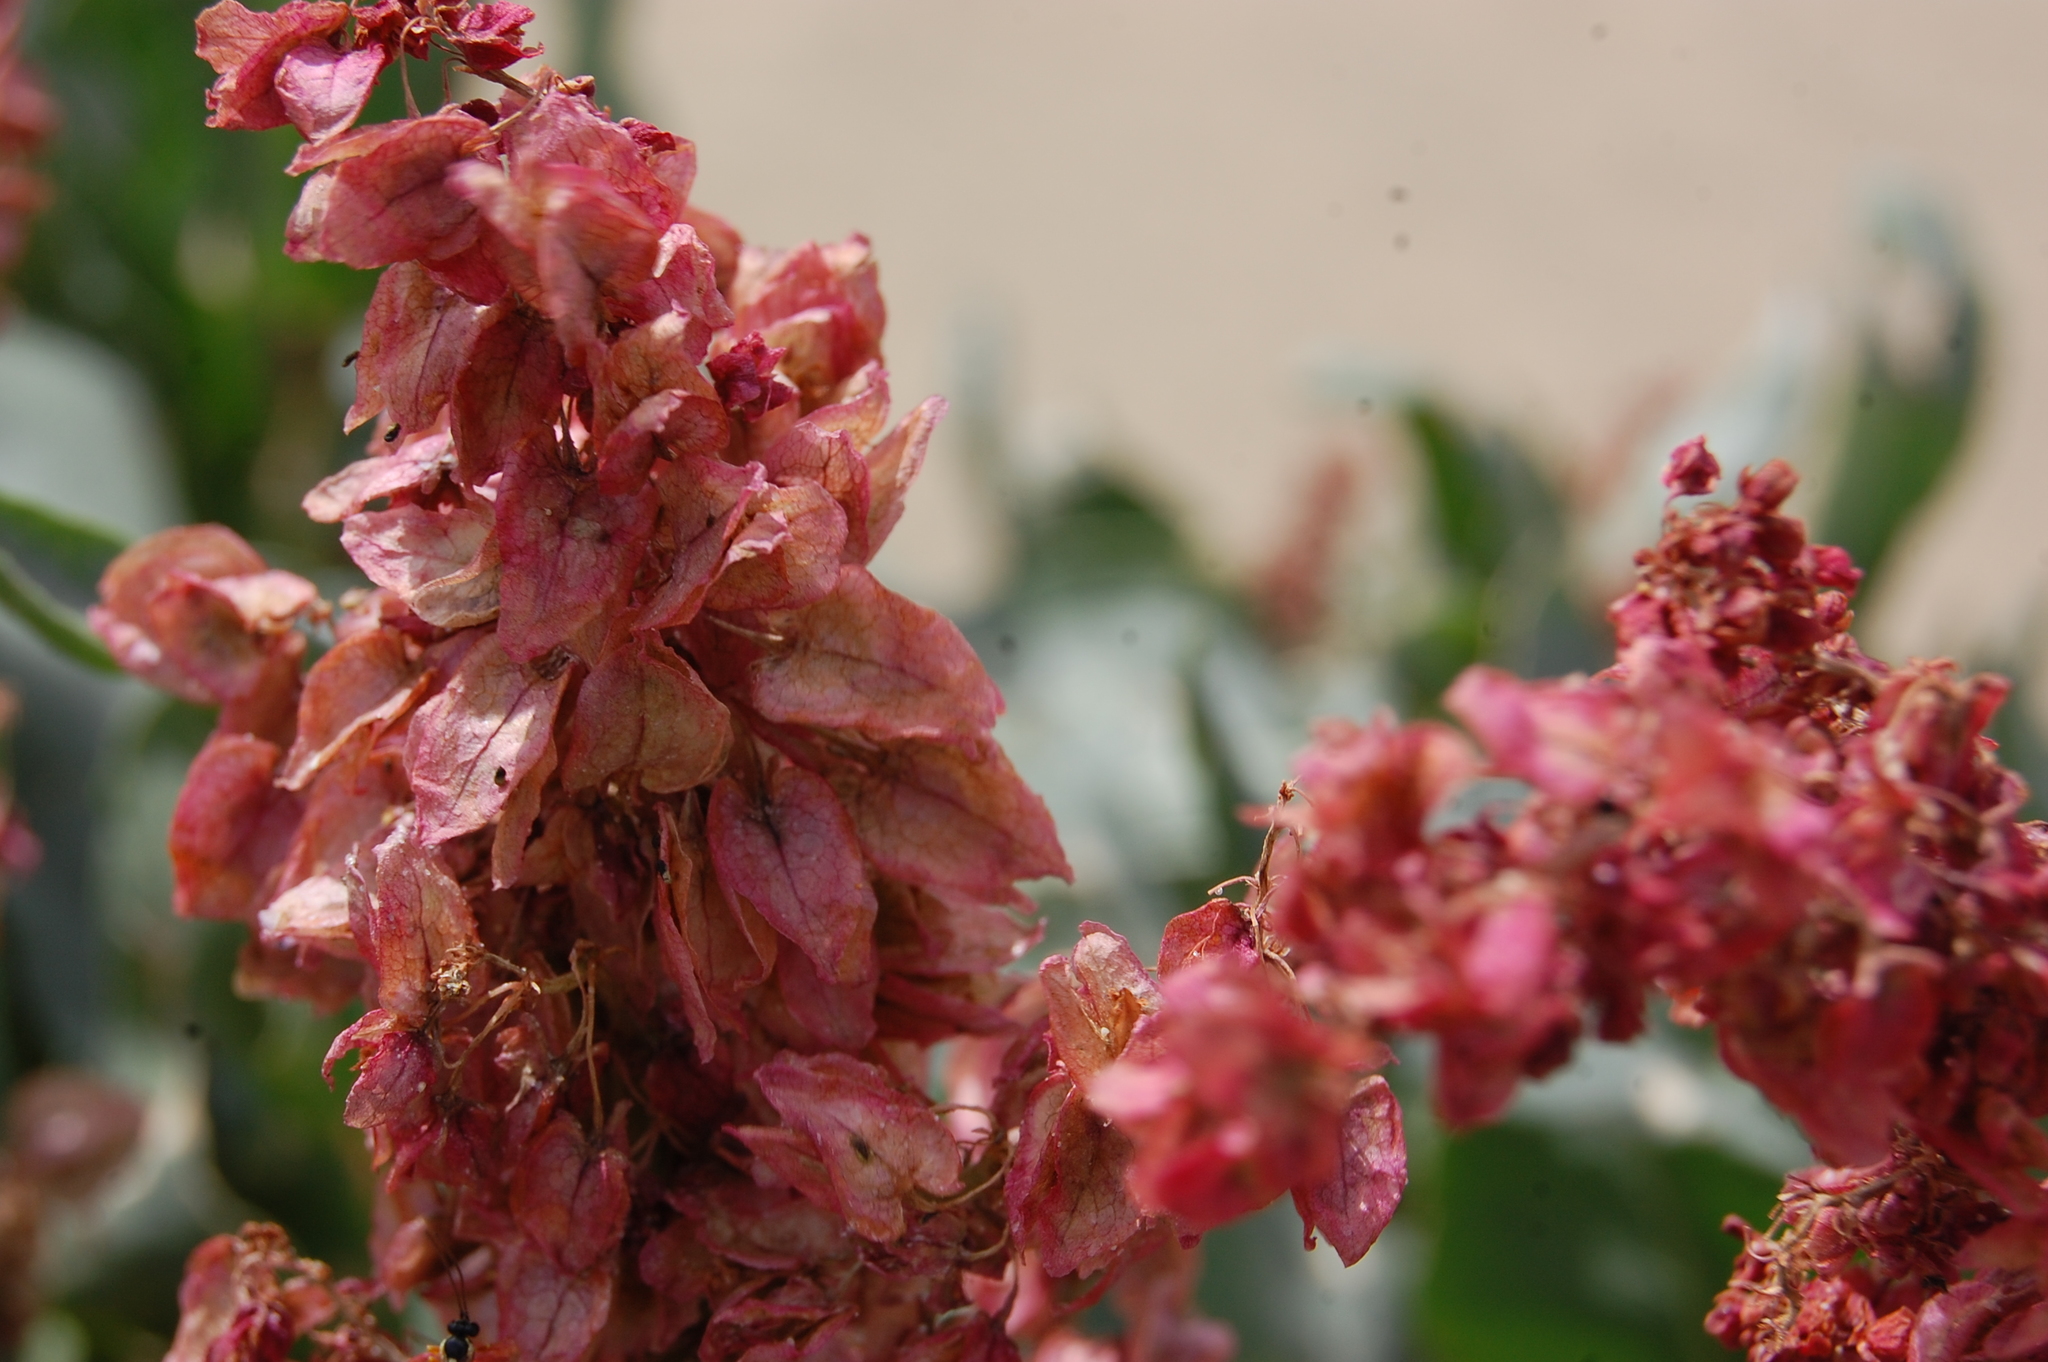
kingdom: Plantae
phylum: Tracheophyta
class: Magnoliopsida
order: Caryophyllales
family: Polygonaceae
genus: Rumex
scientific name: Rumex hymenosepalus
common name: Ganagra
